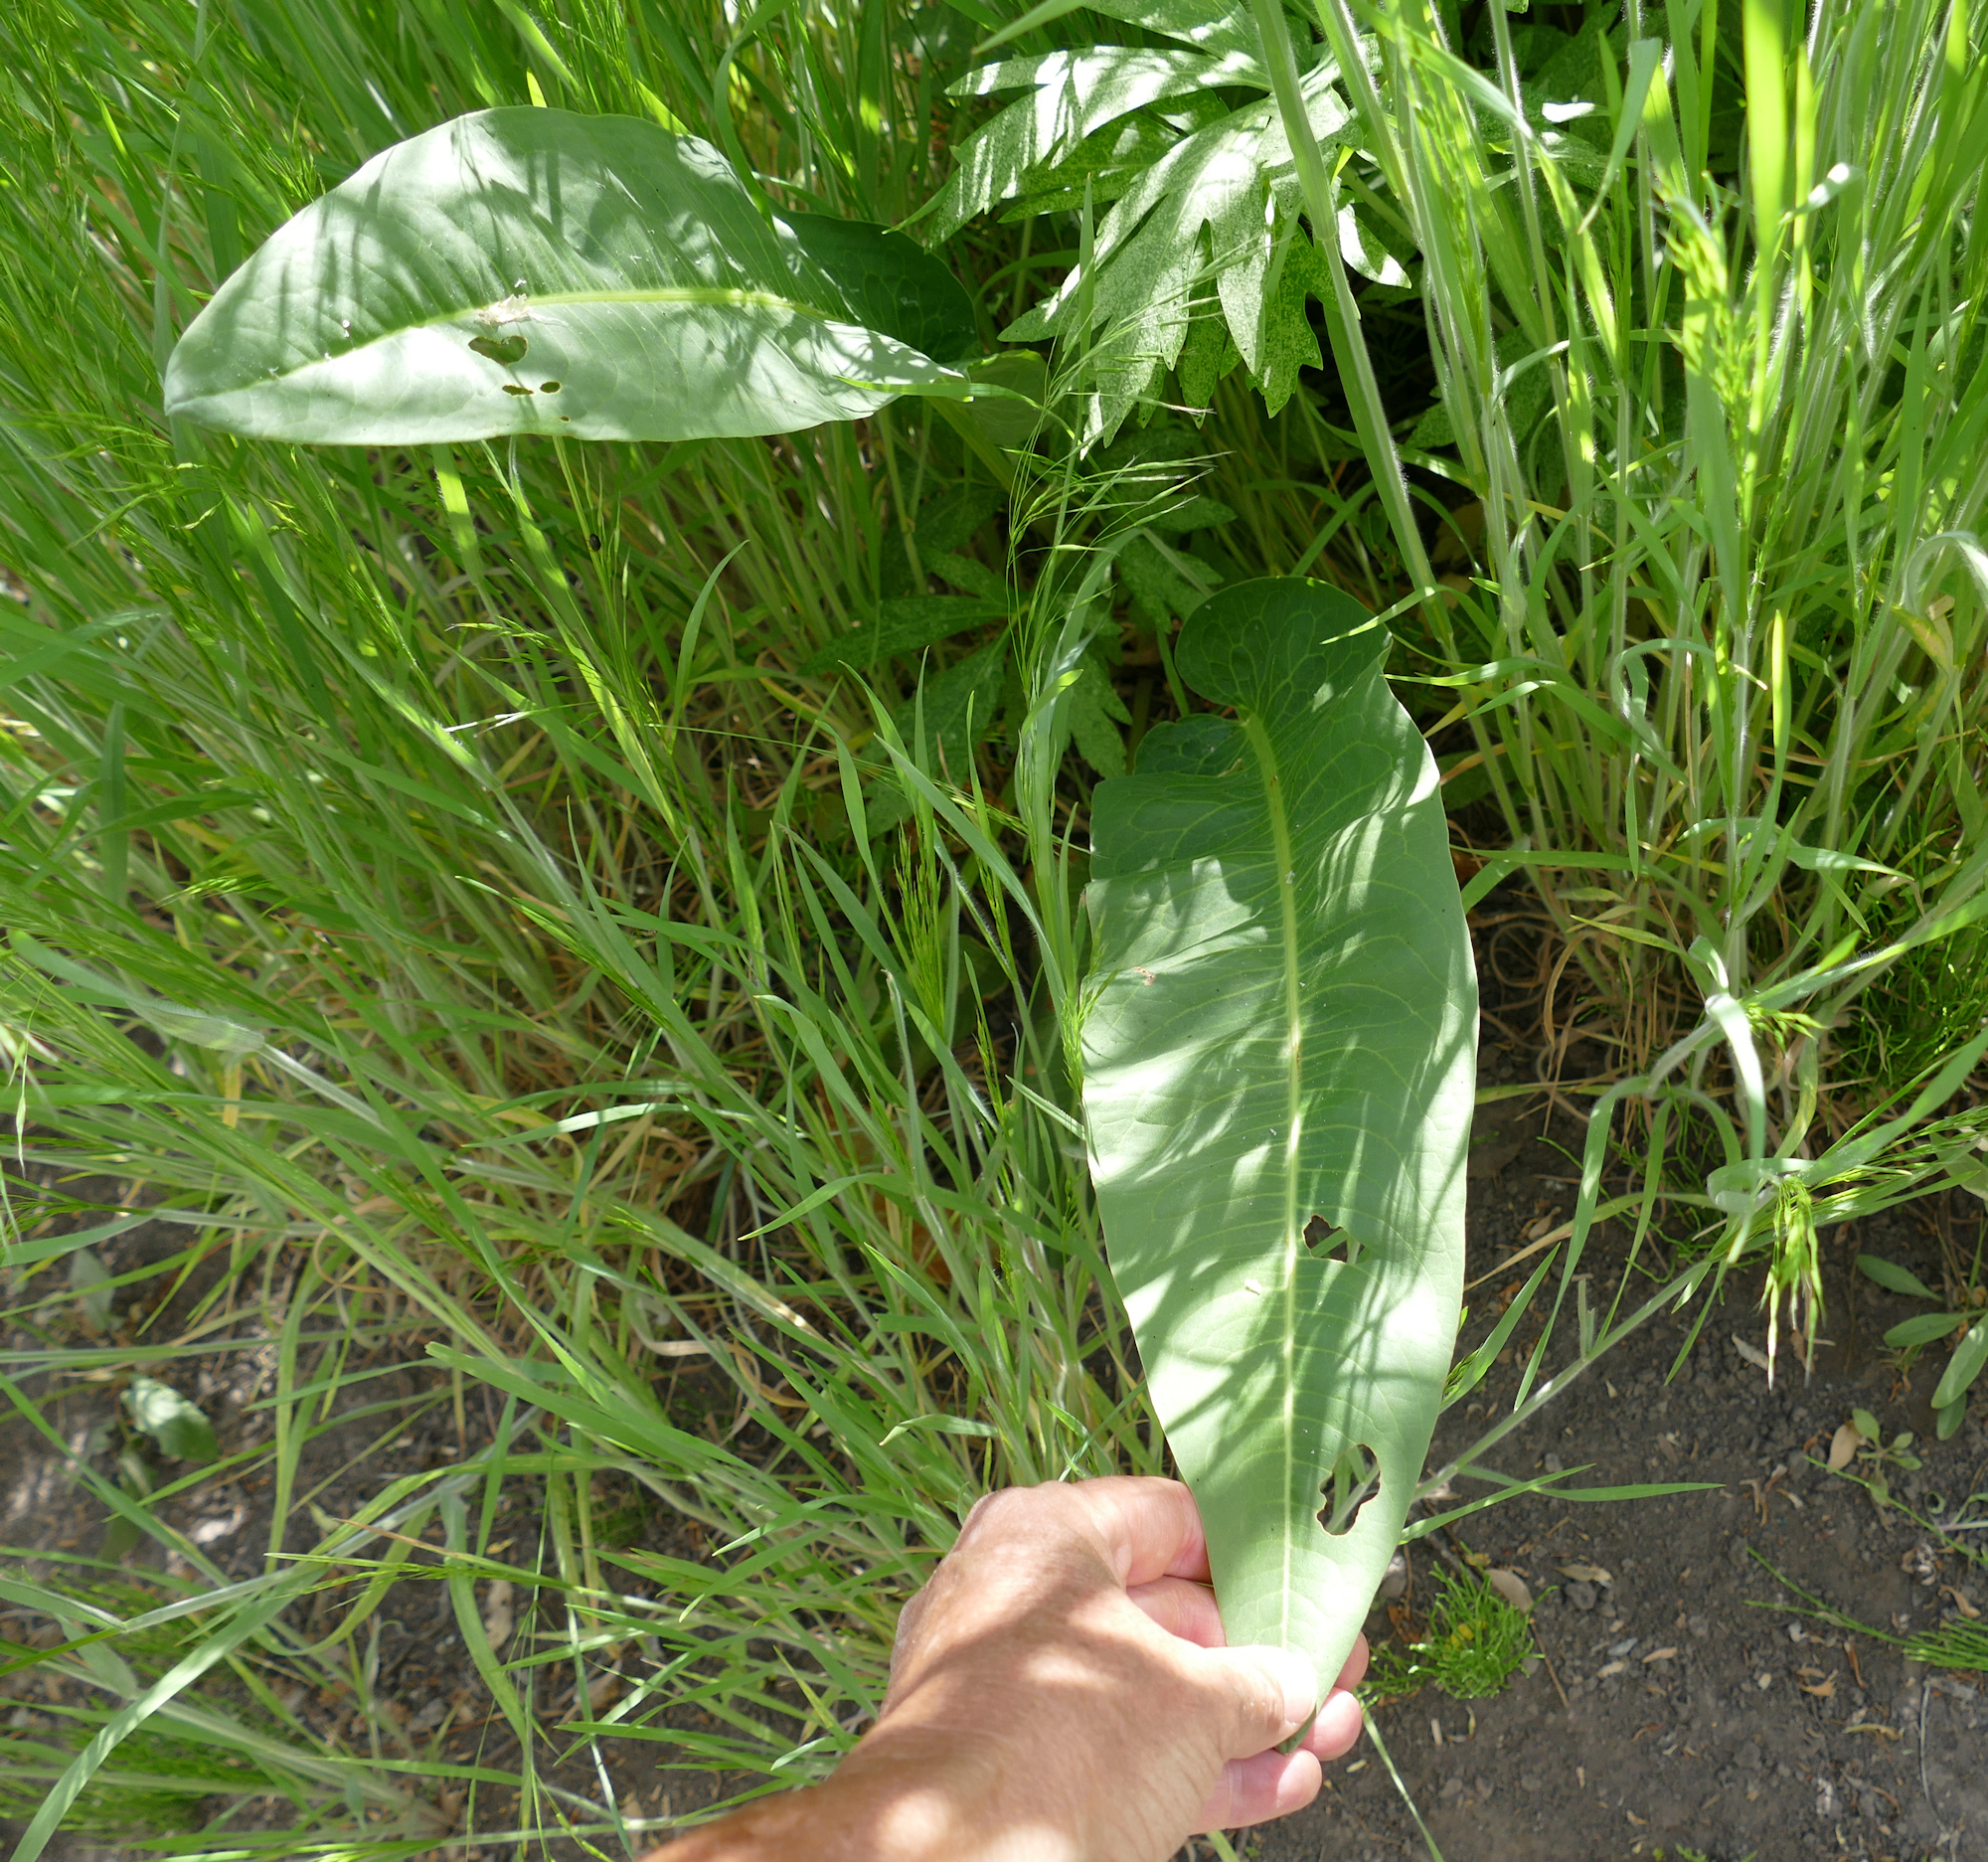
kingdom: Plantae
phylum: Tracheophyta
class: Magnoliopsida
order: Caryophyllales
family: Polygonaceae
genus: Rumex
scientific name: Rumex orthoneurus
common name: Chiricahua dock
